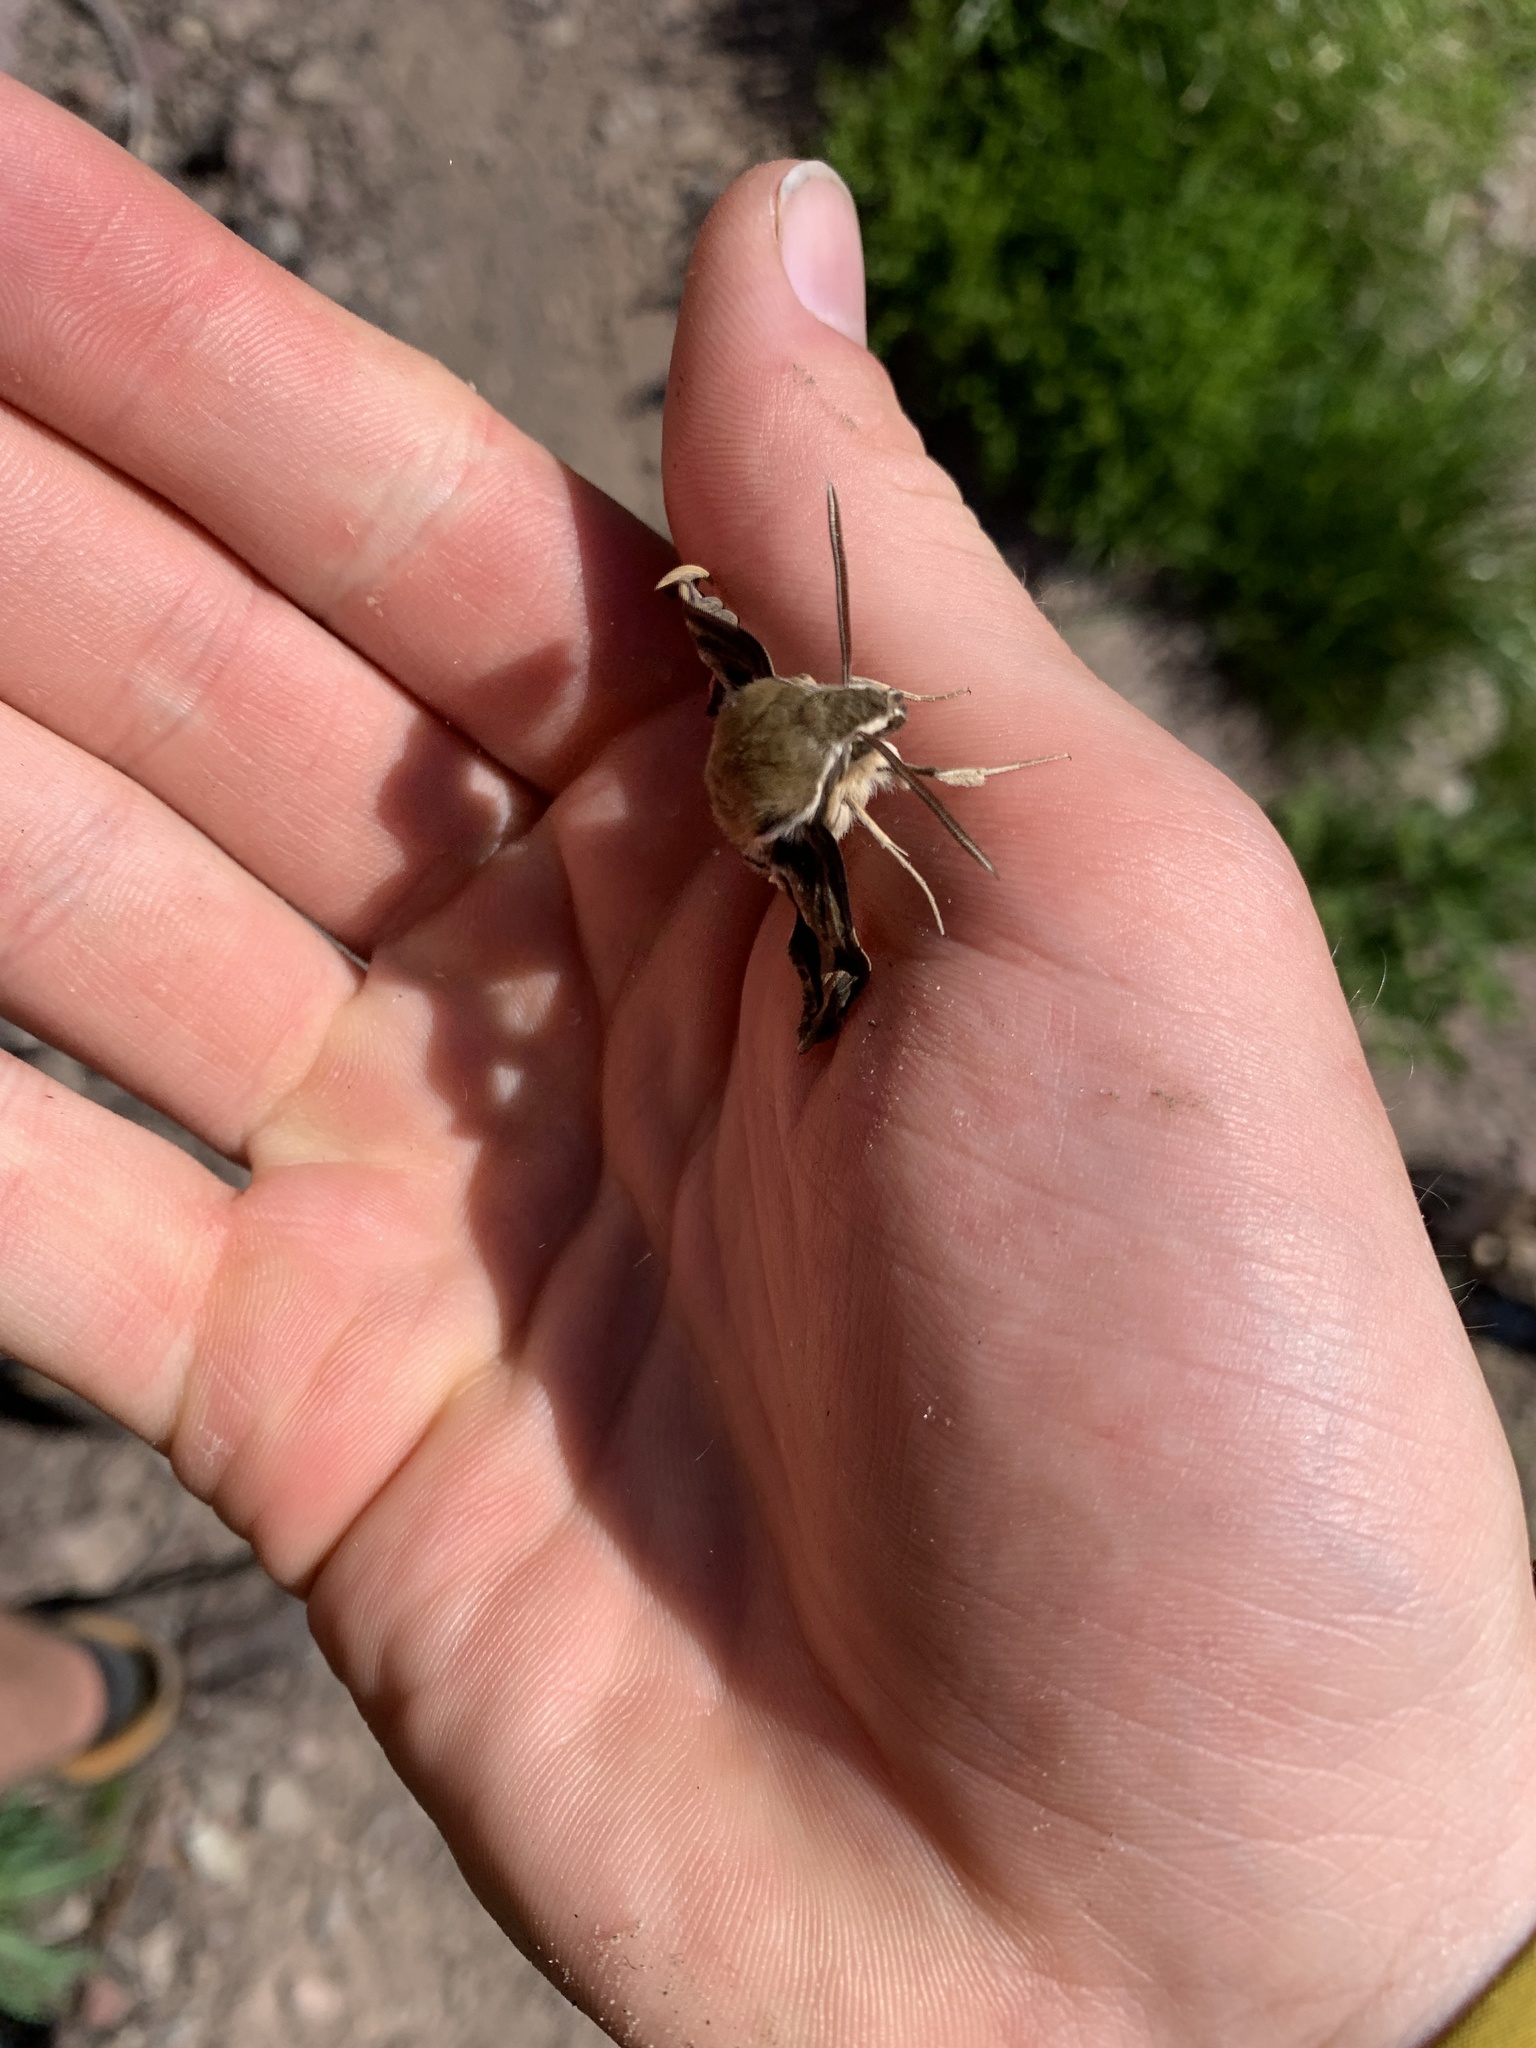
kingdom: Animalia
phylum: Arthropoda
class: Insecta
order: Lepidoptera
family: Sphingidae
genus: Hyles
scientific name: Hyles gallii
